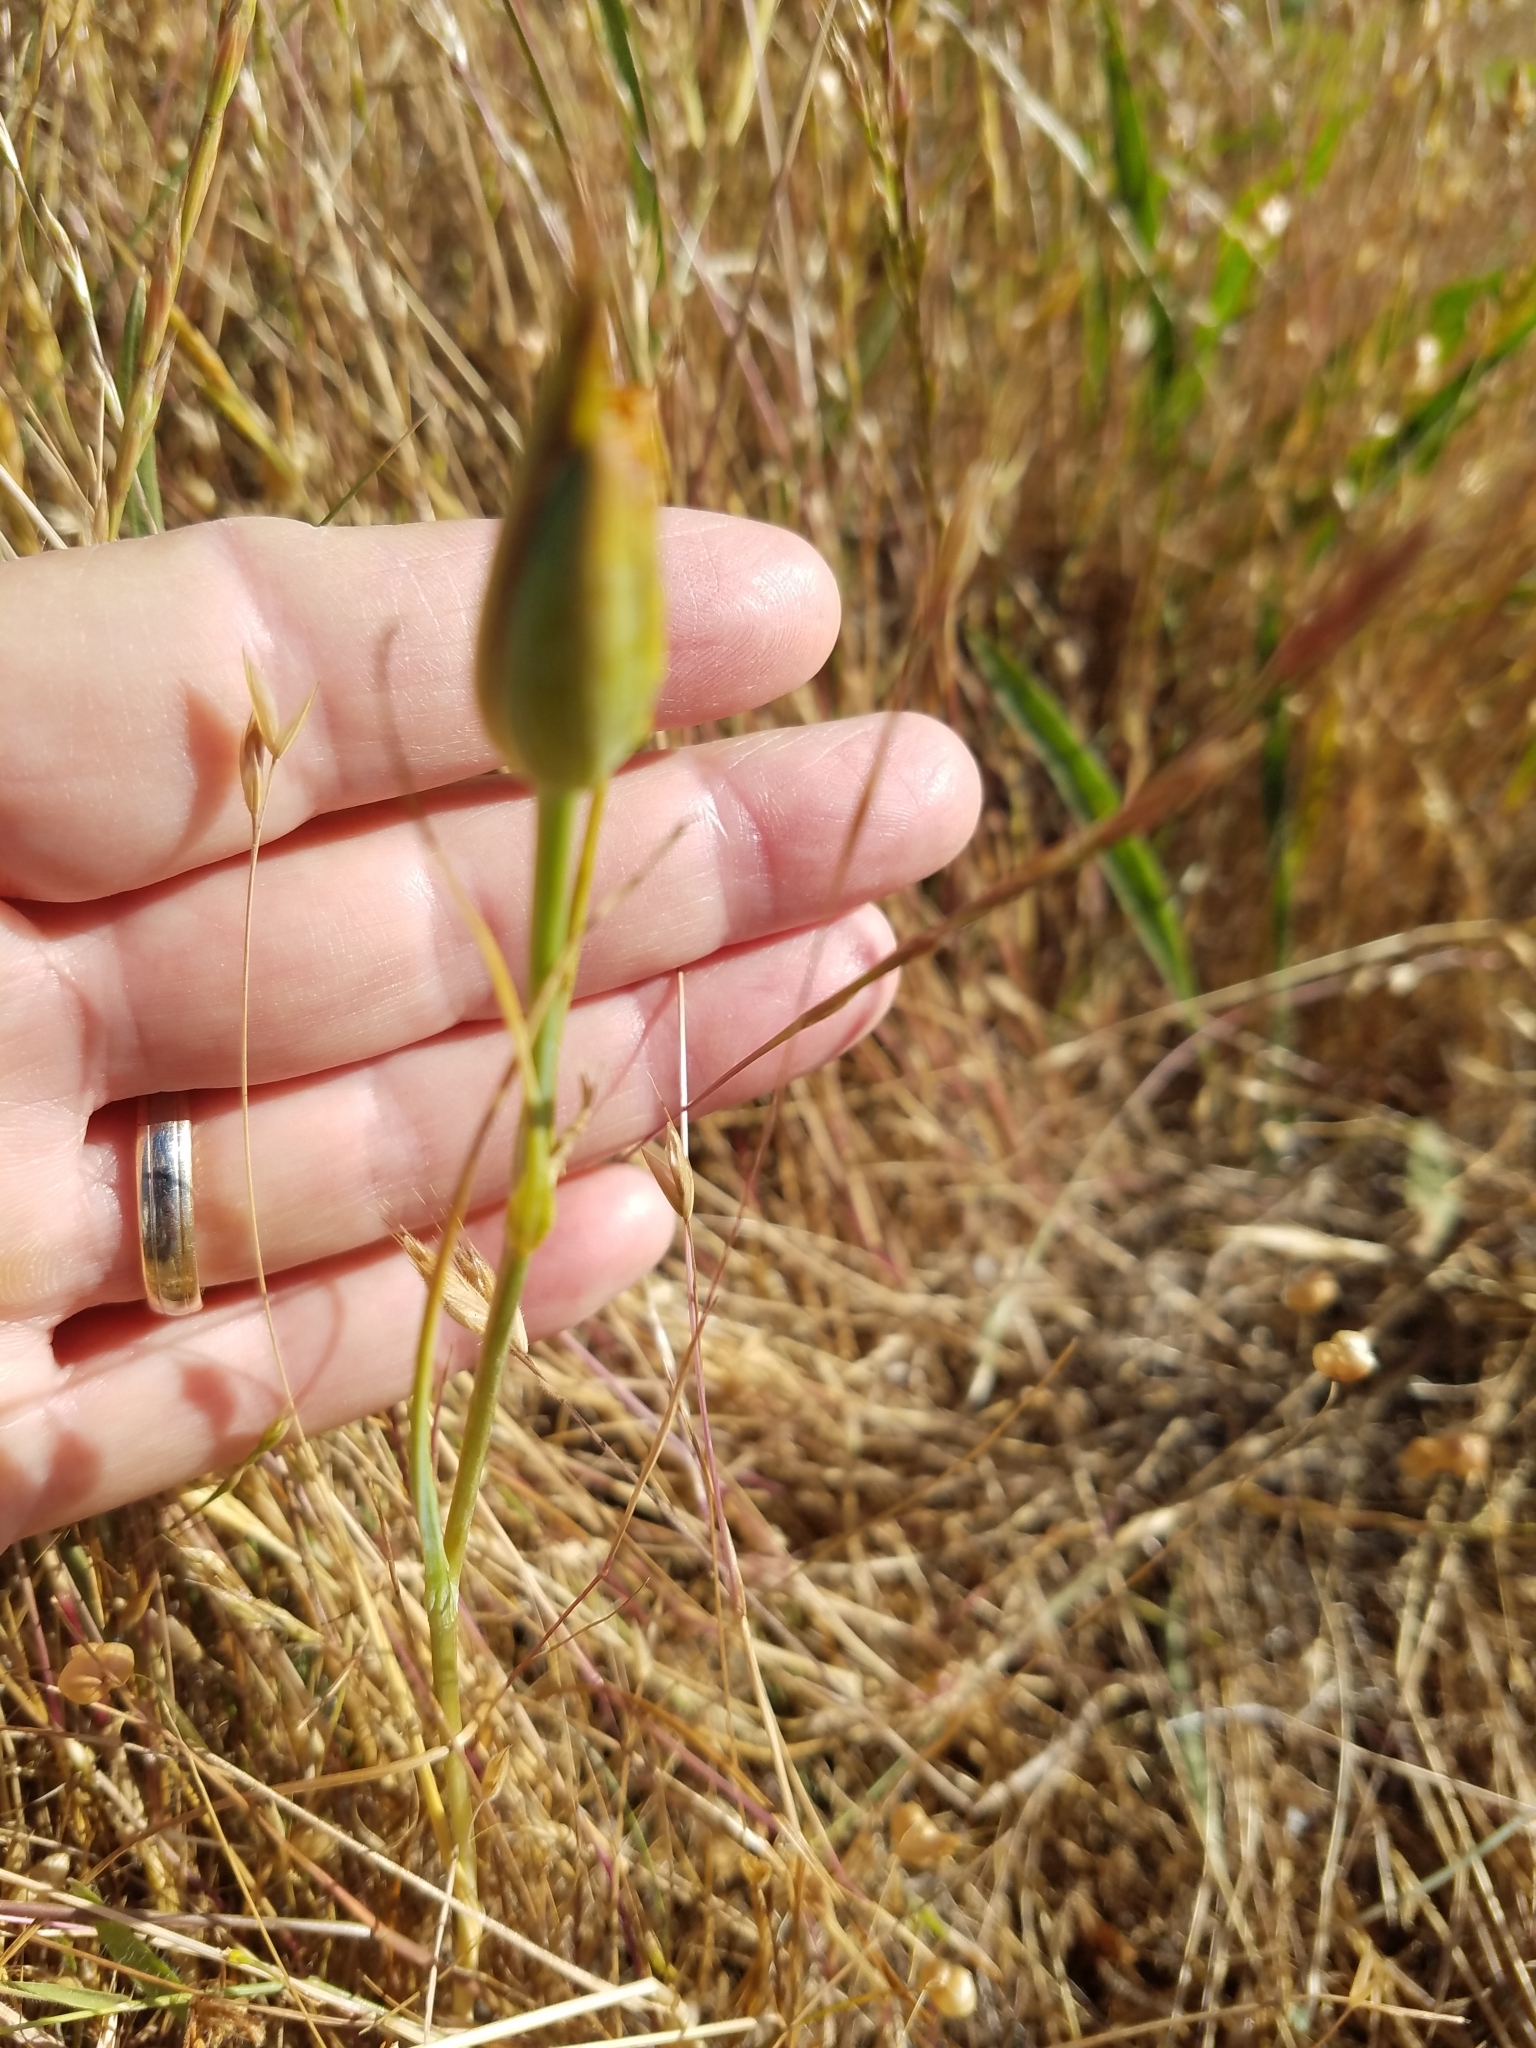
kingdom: Plantae
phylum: Tracheophyta
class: Liliopsida
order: Liliales
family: Liliaceae
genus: Calochortus
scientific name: Calochortus luteus
